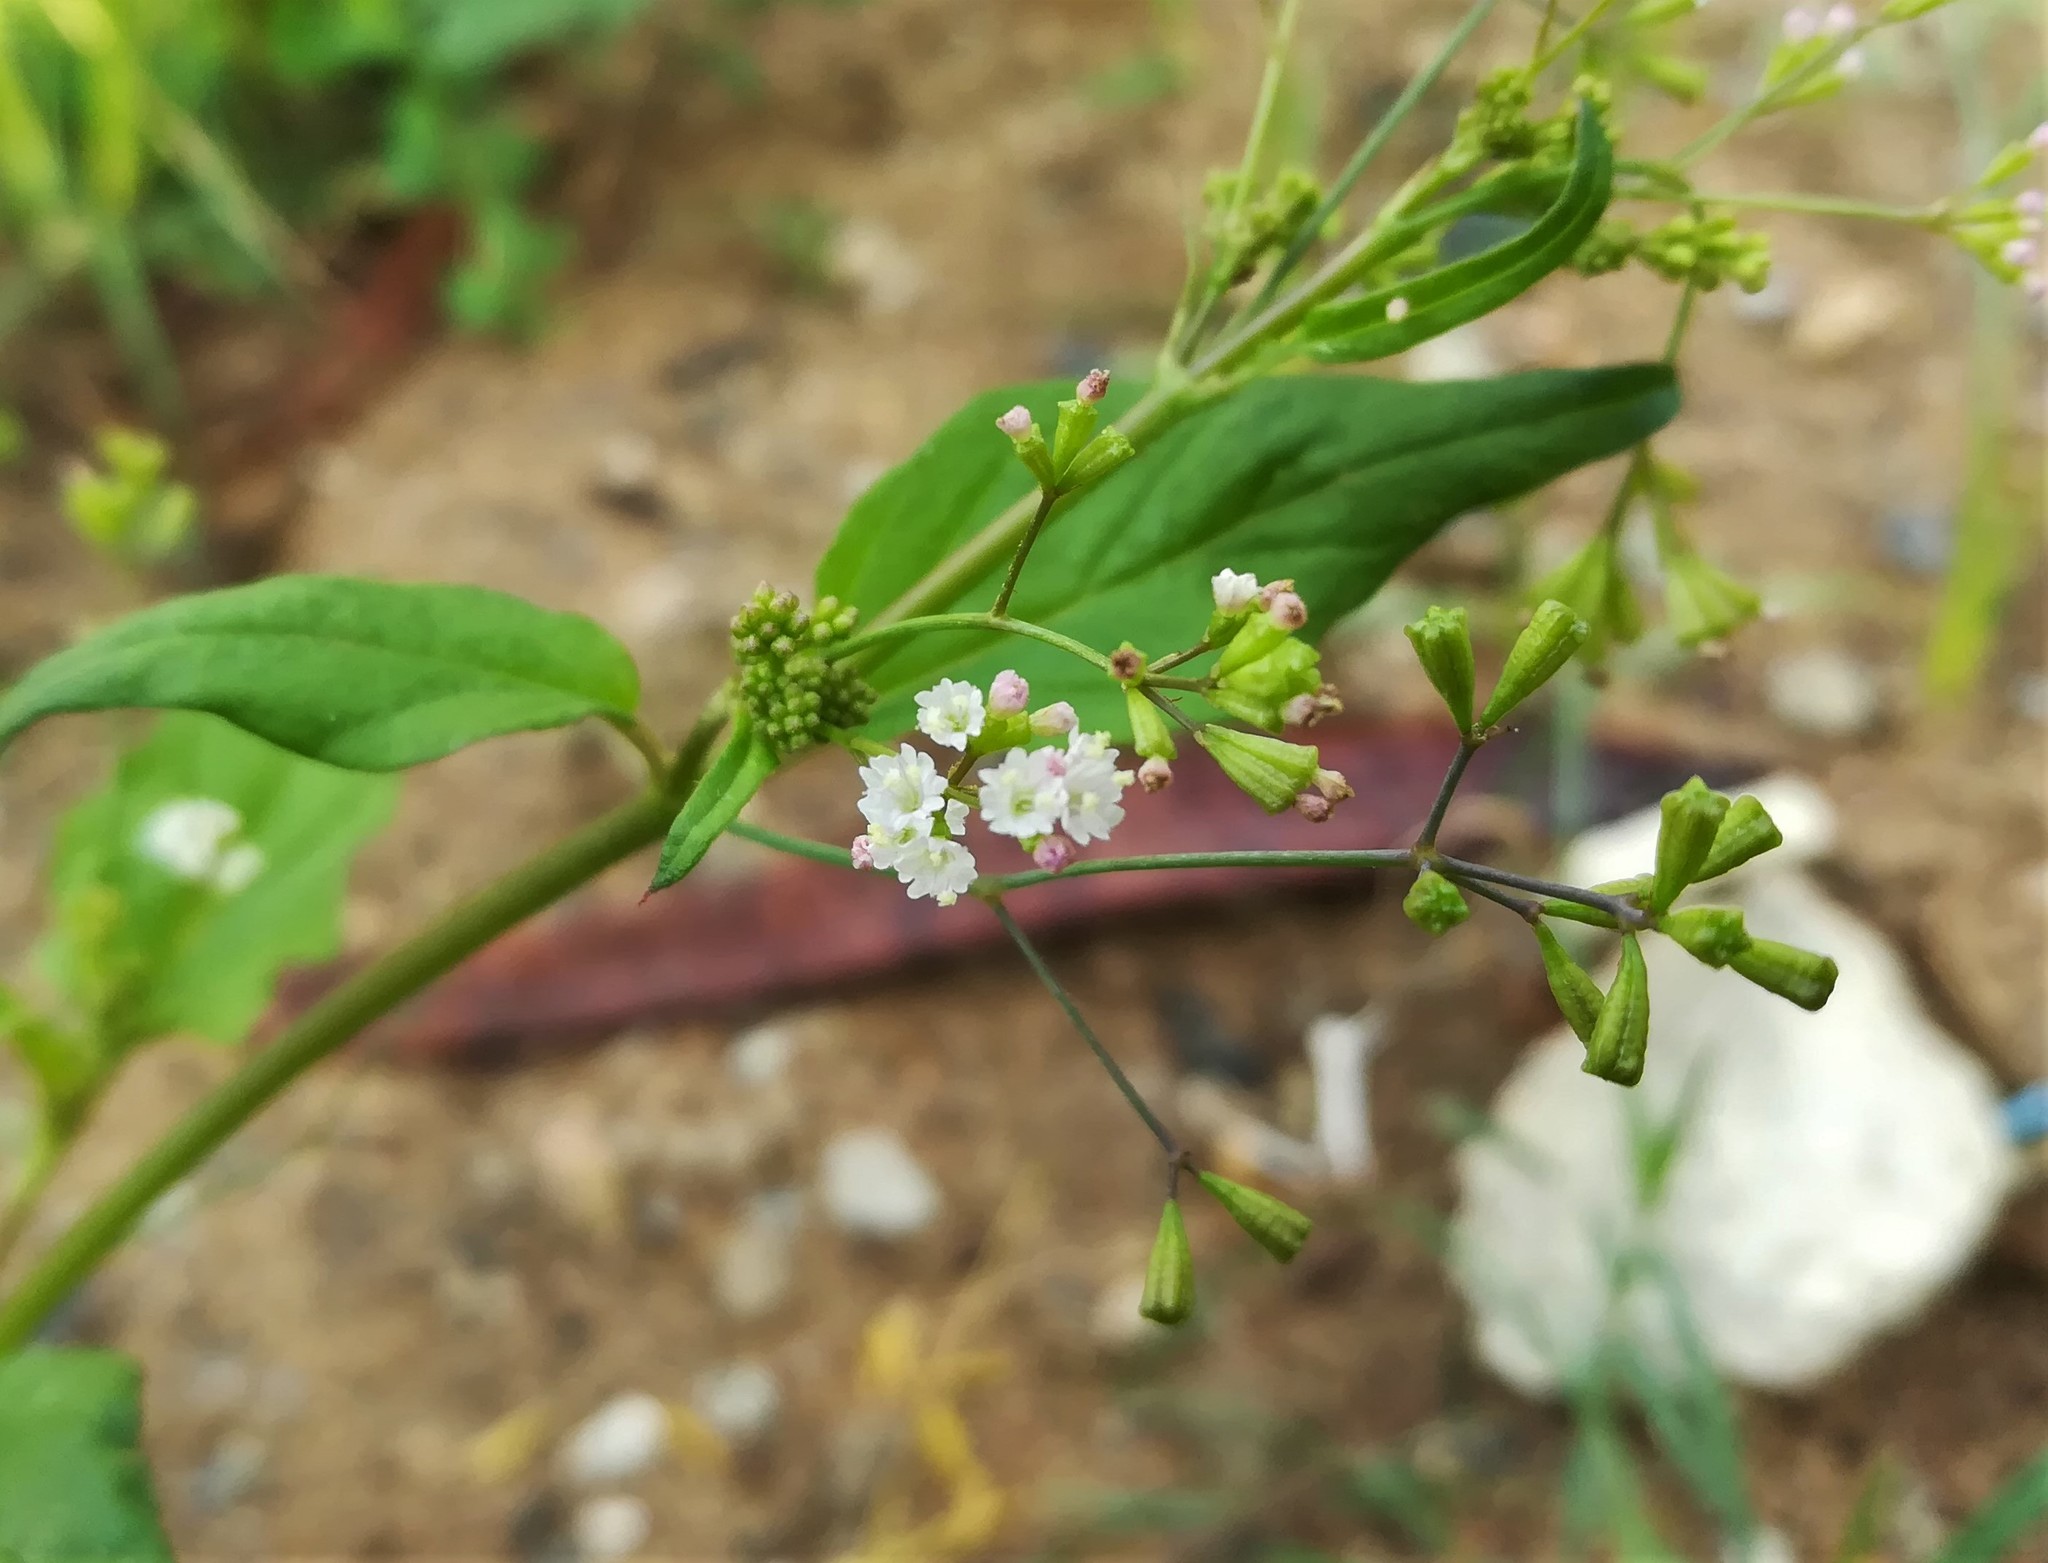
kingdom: Plantae
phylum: Tracheophyta
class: Magnoliopsida
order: Caryophyllales
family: Nyctaginaceae
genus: Boerhavia
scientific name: Boerhavia erecta
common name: Erect spiderling
